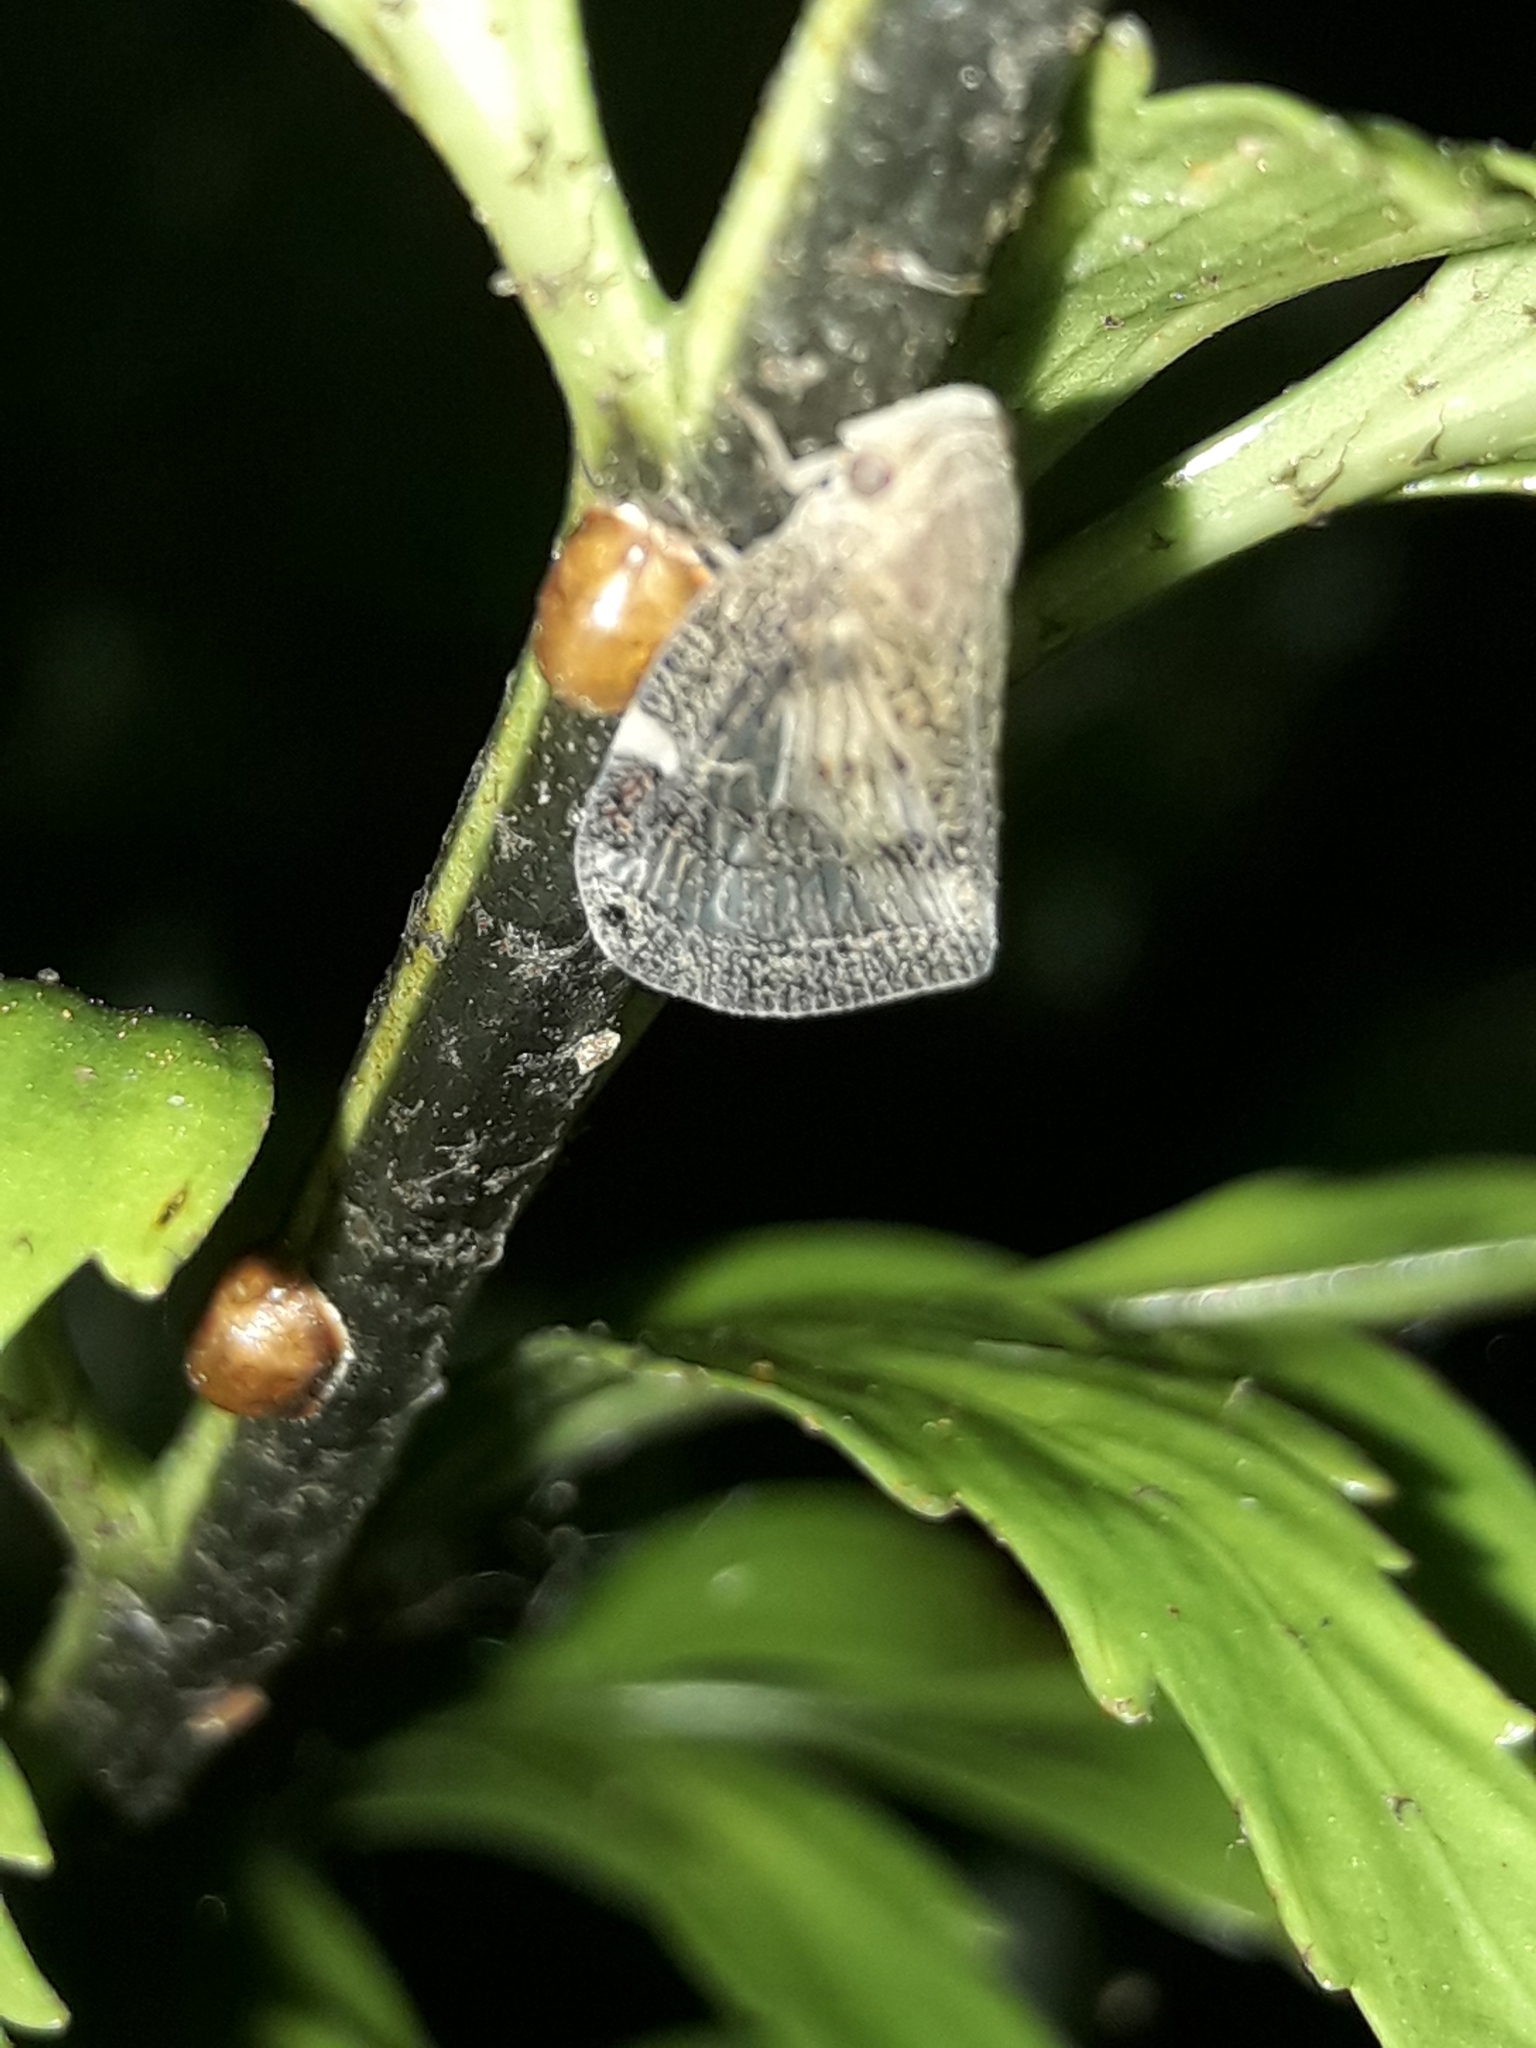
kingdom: Animalia
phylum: Arthropoda
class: Insecta
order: Hemiptera
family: Ricaniidae
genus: Scolypopa
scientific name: Scolypopa australis
